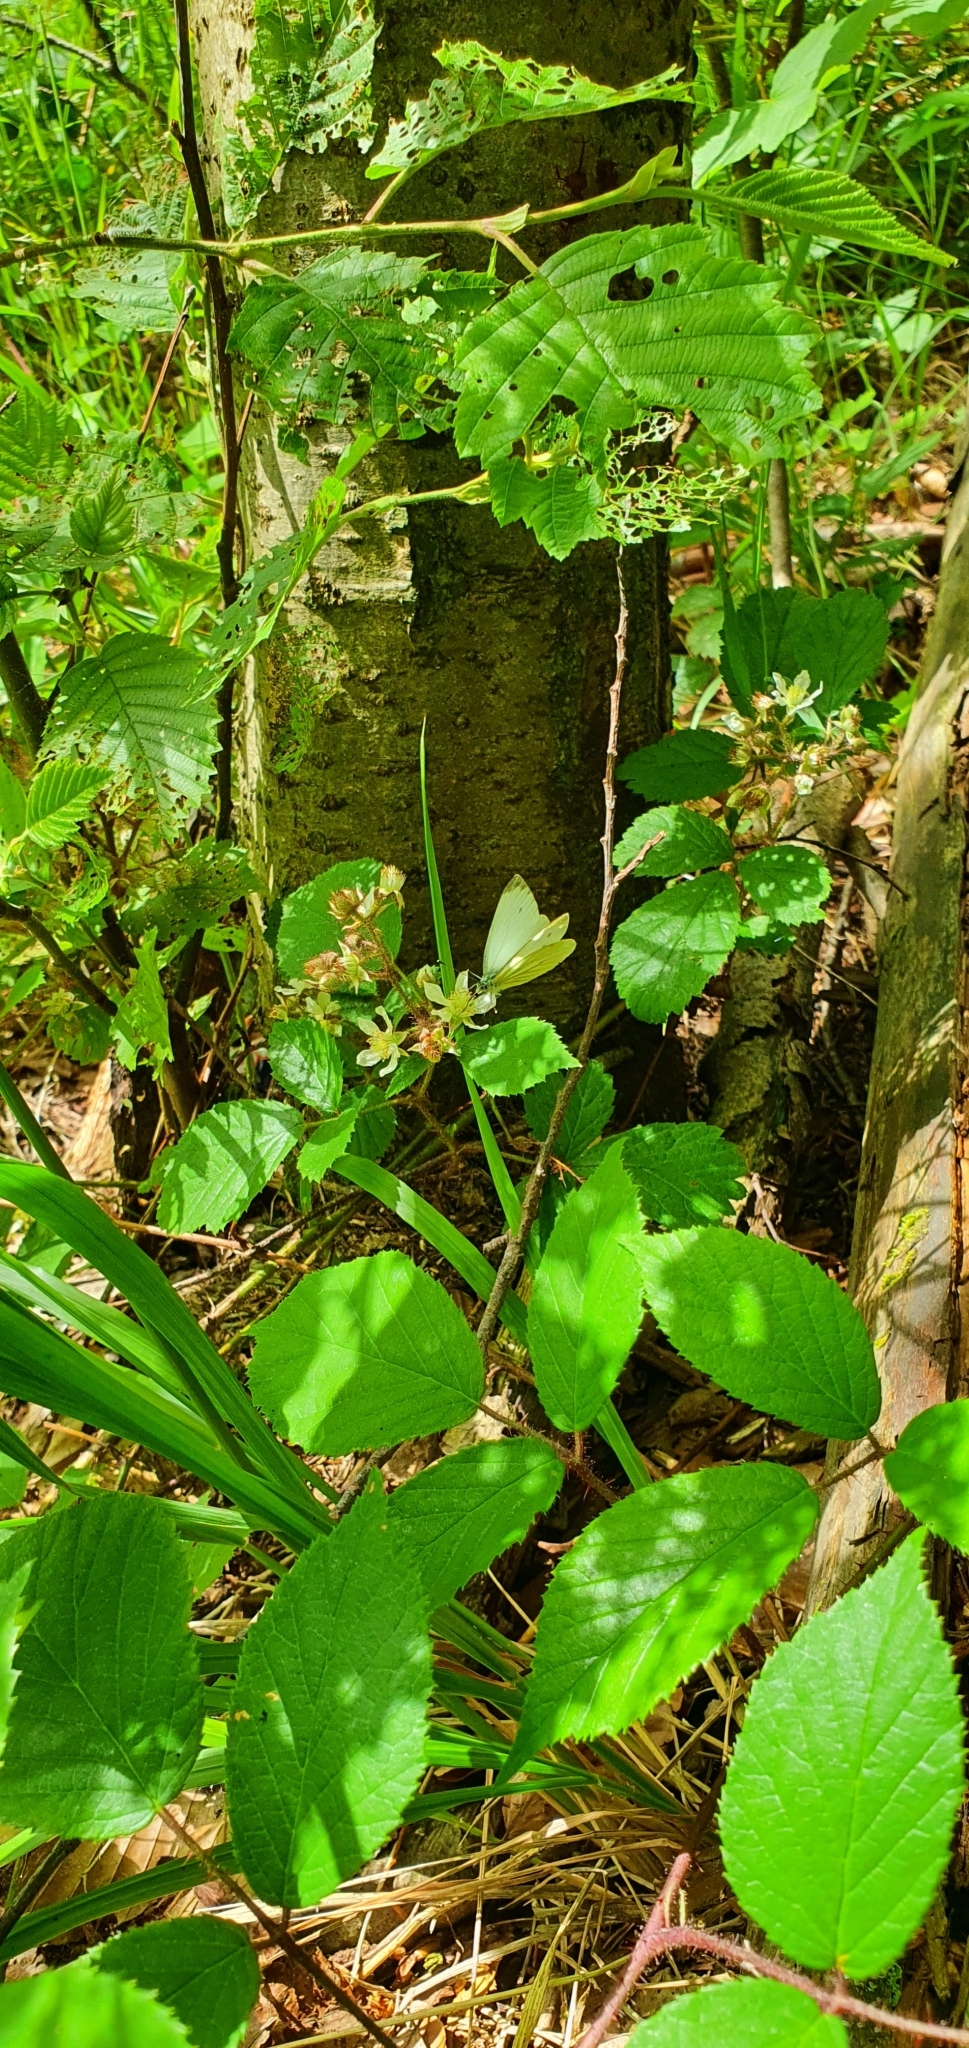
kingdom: Animalia
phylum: Arthropoda
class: Insecta
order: Lepidoptera
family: Pieridae
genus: Pieris
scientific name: Pieris napi
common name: Green-veined white
